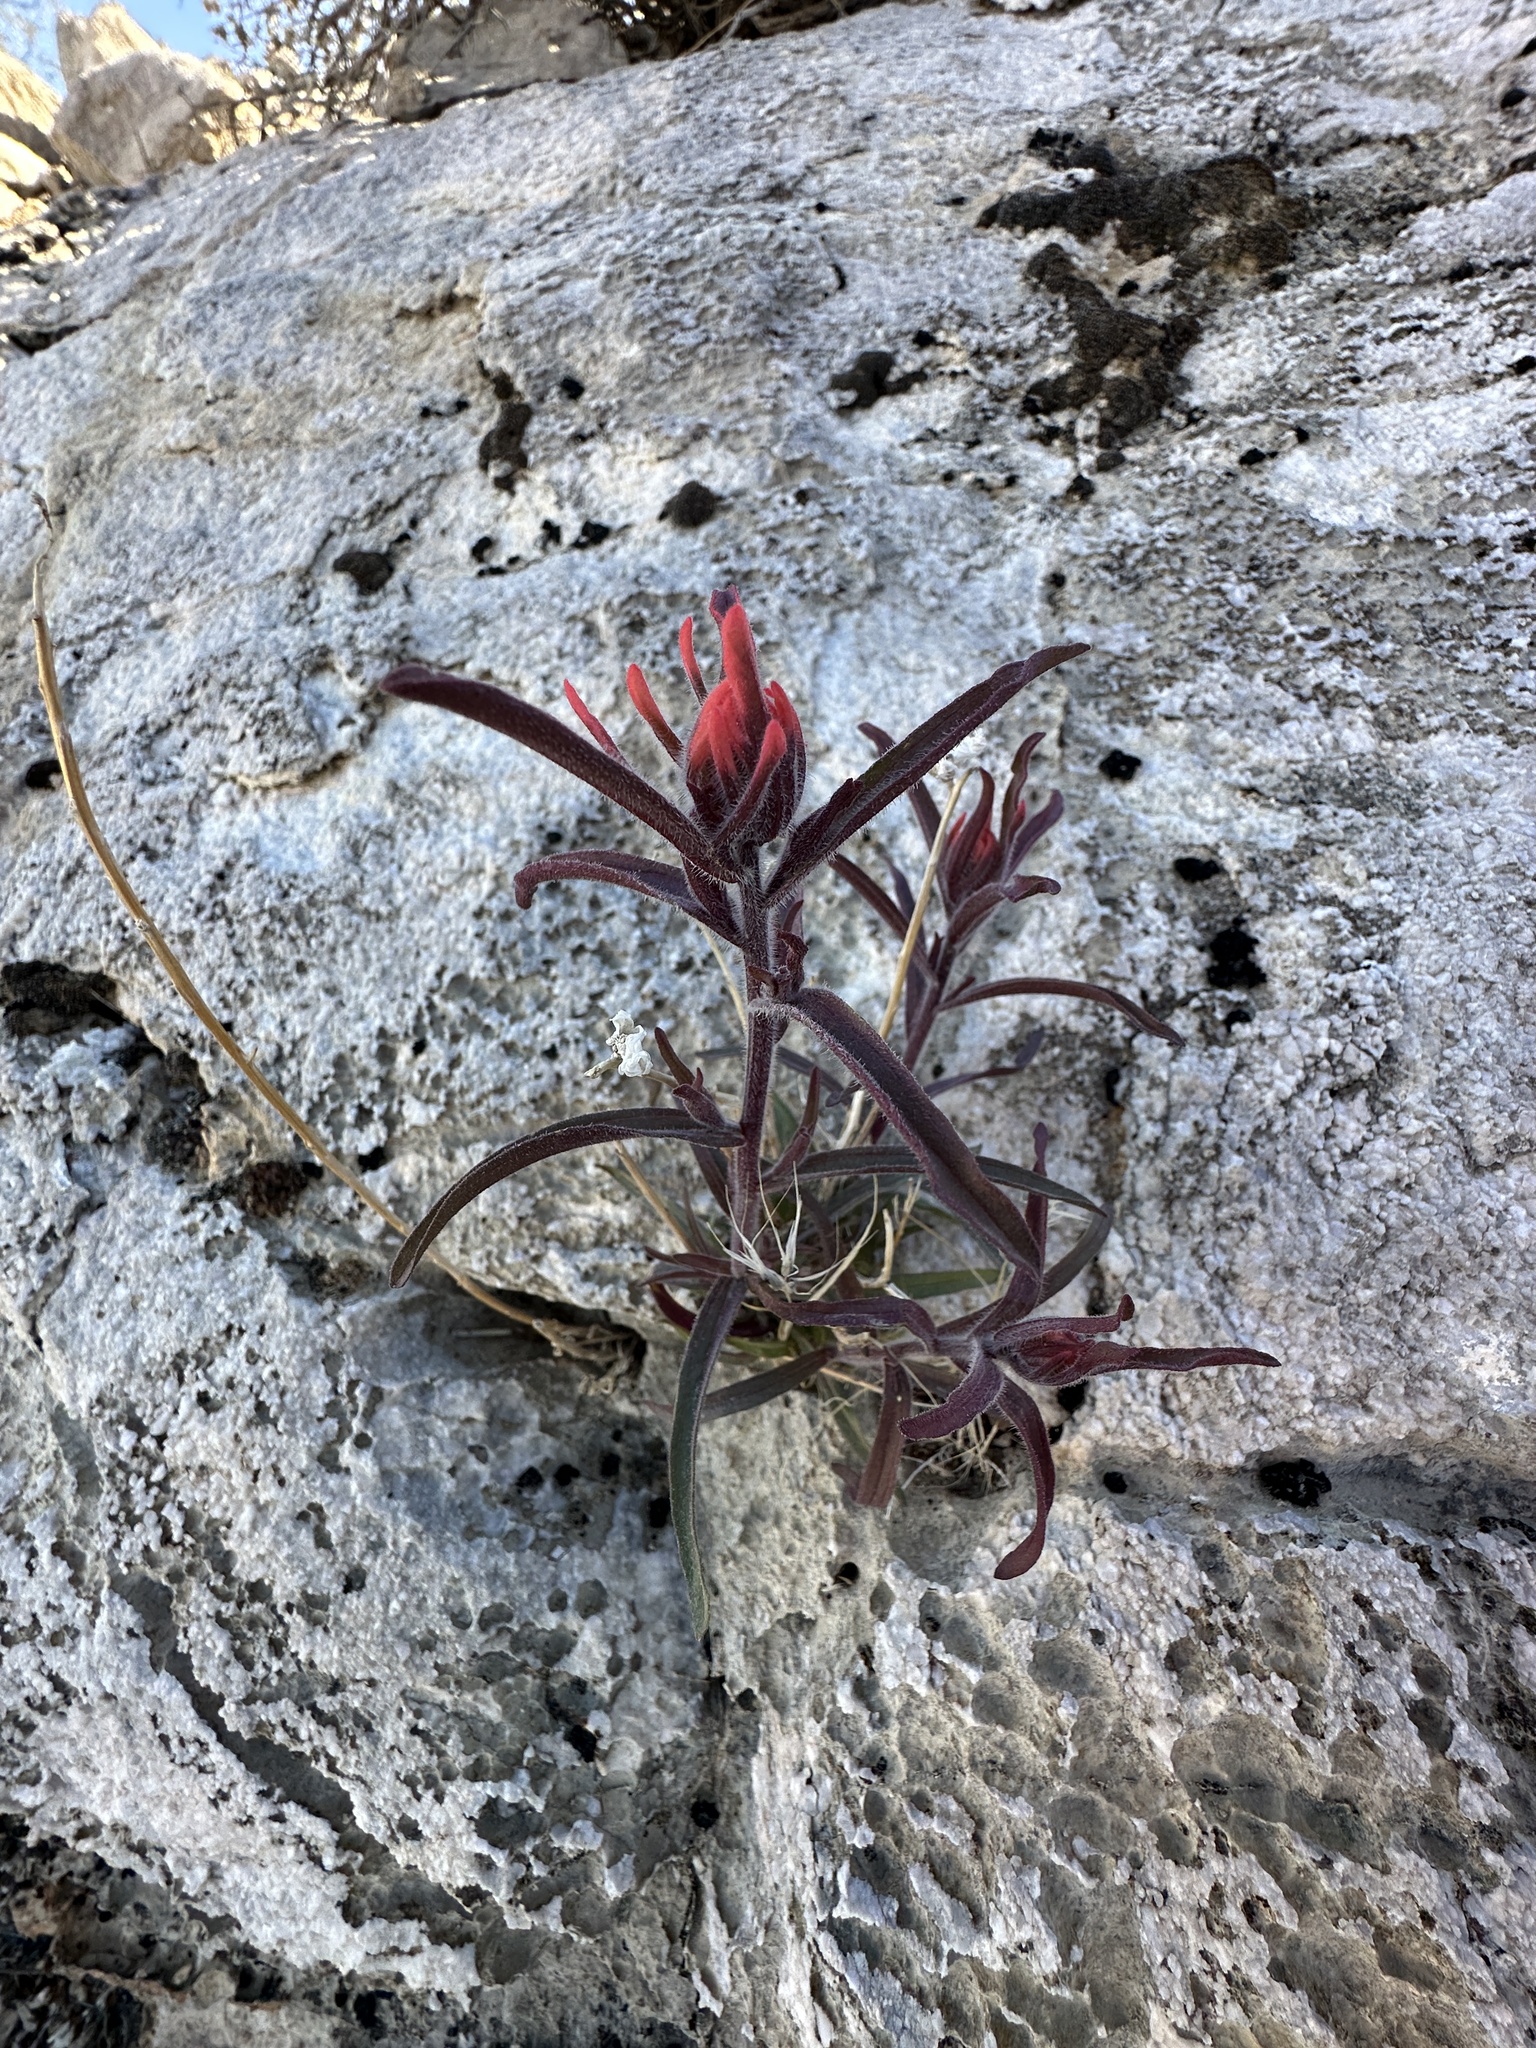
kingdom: Plantae
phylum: Tracheophyta
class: Magnoliopsida
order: Lamiales
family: Orobanchaceae
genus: Castilleja
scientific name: Castilleja chromosa
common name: Desert paintbrush
